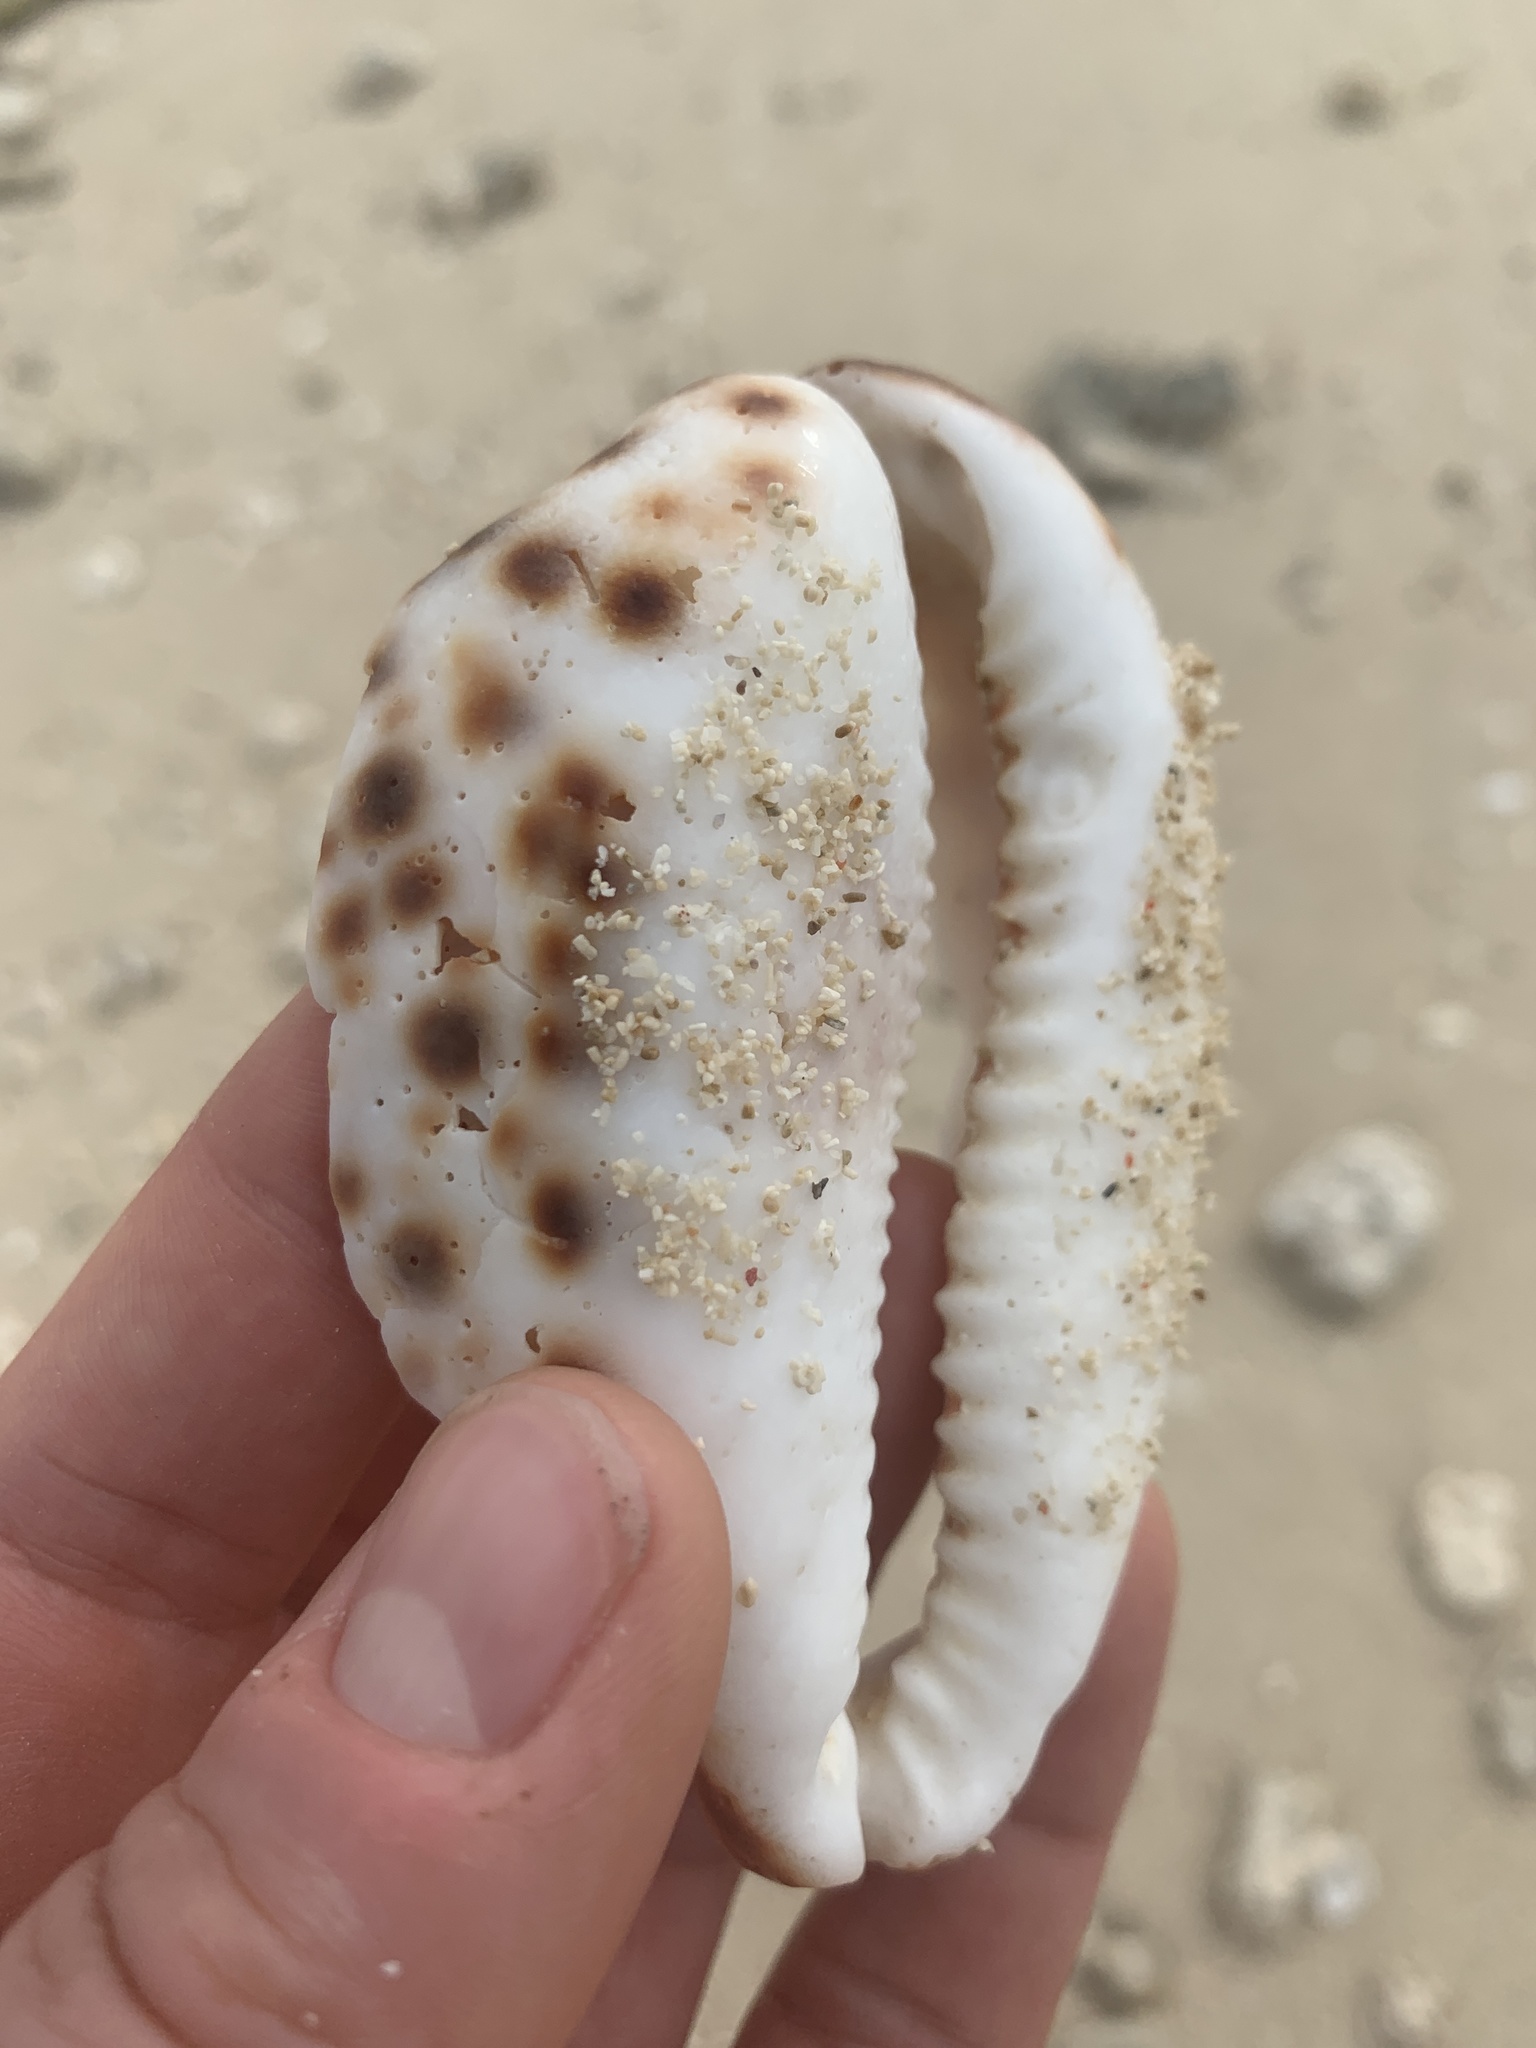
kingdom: Animalia
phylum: Mollusca
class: Gastropoda
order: Littorinimorpha
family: Cypraeidae
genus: Cypraea
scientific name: Cypraea tigris
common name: Tiger cowrie
